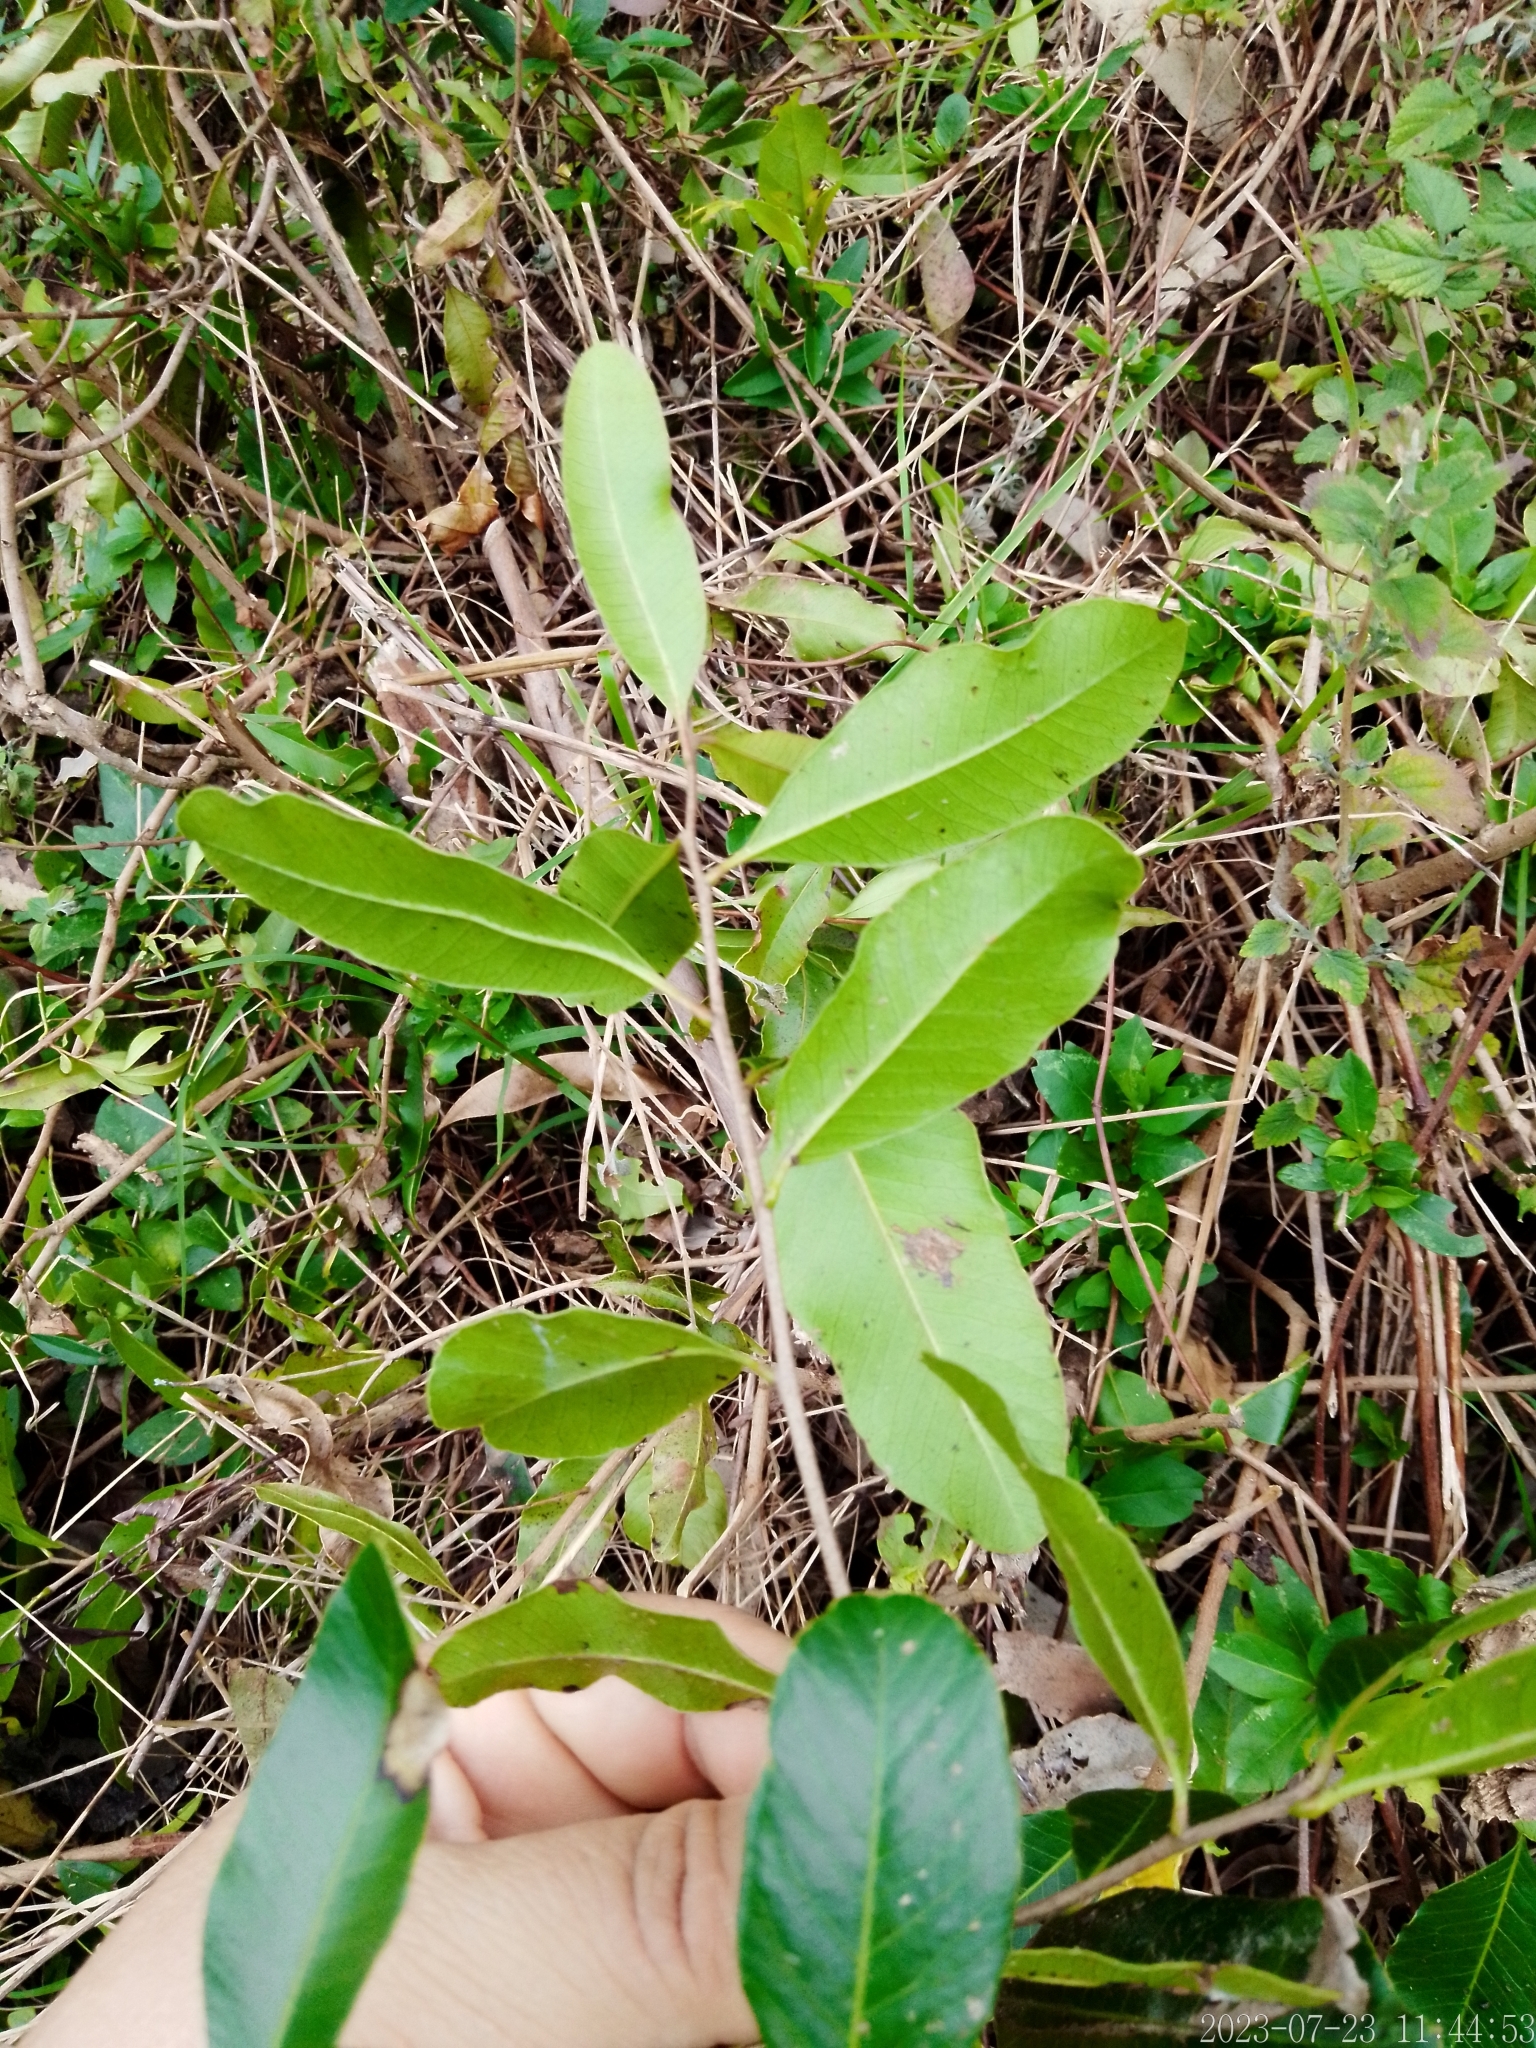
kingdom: Plantae
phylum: Tracheophyta
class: Magnoliopsida
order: Sapindales
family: Anacardiaceae
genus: Lithraea
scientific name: Lithraea brasiliensis
